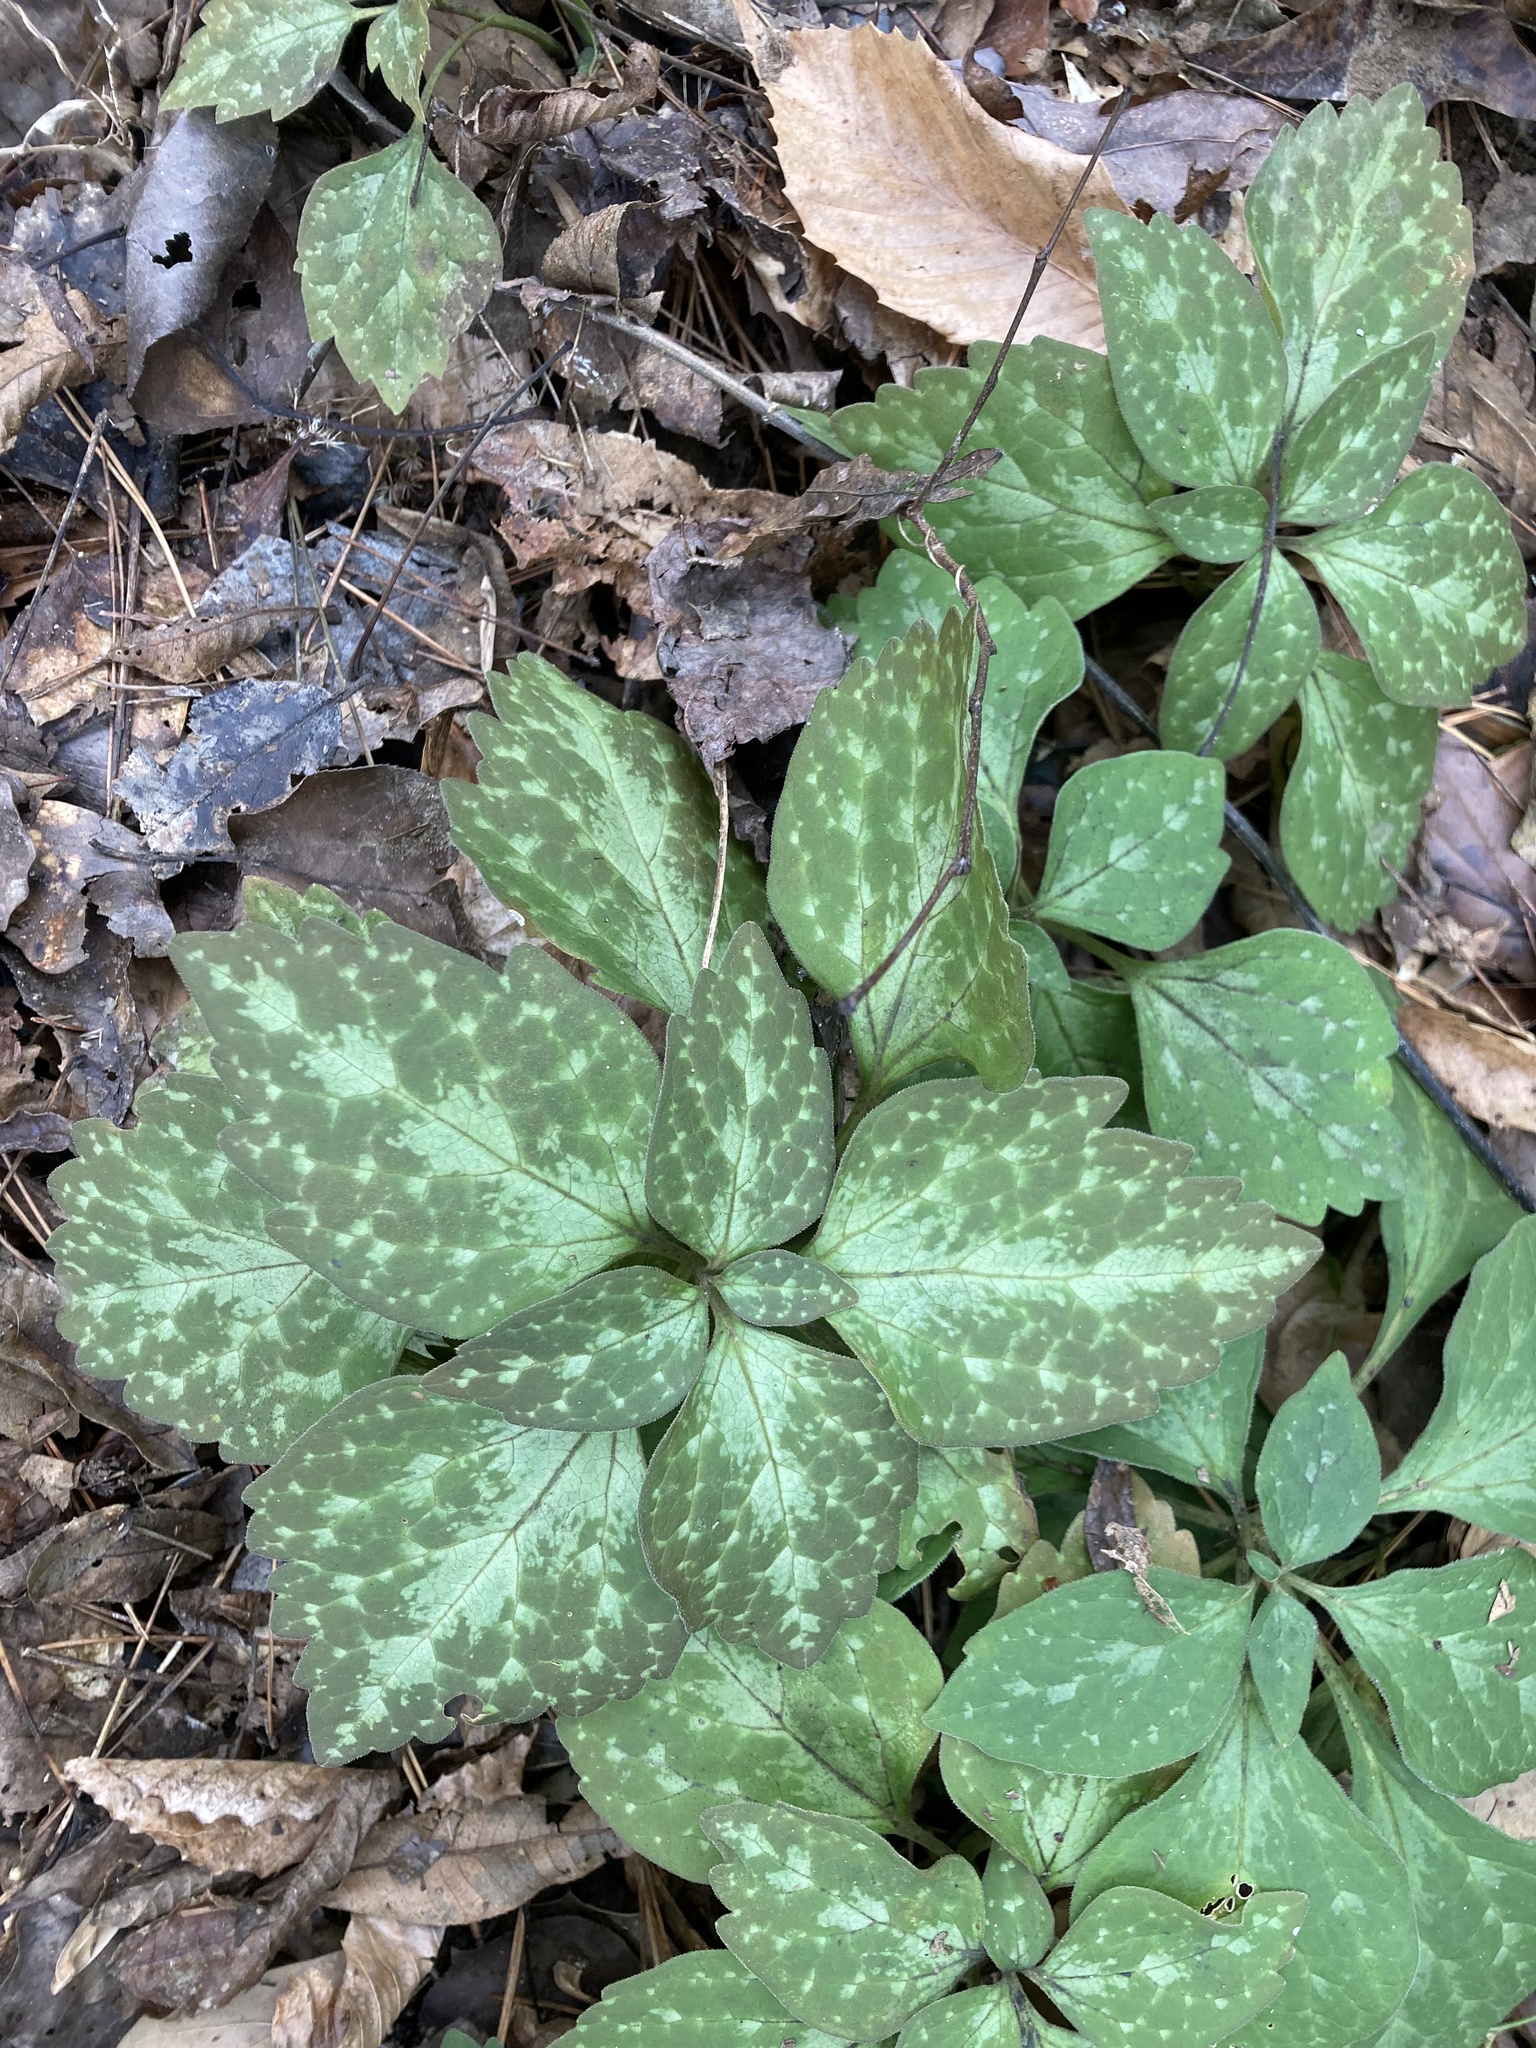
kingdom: Plantae
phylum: Tracheophyta
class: Magnoliopsida
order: Buxales
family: Buxaceae
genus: Pachysandra
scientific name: Pachysandra procumbens
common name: Mountain-spurge
